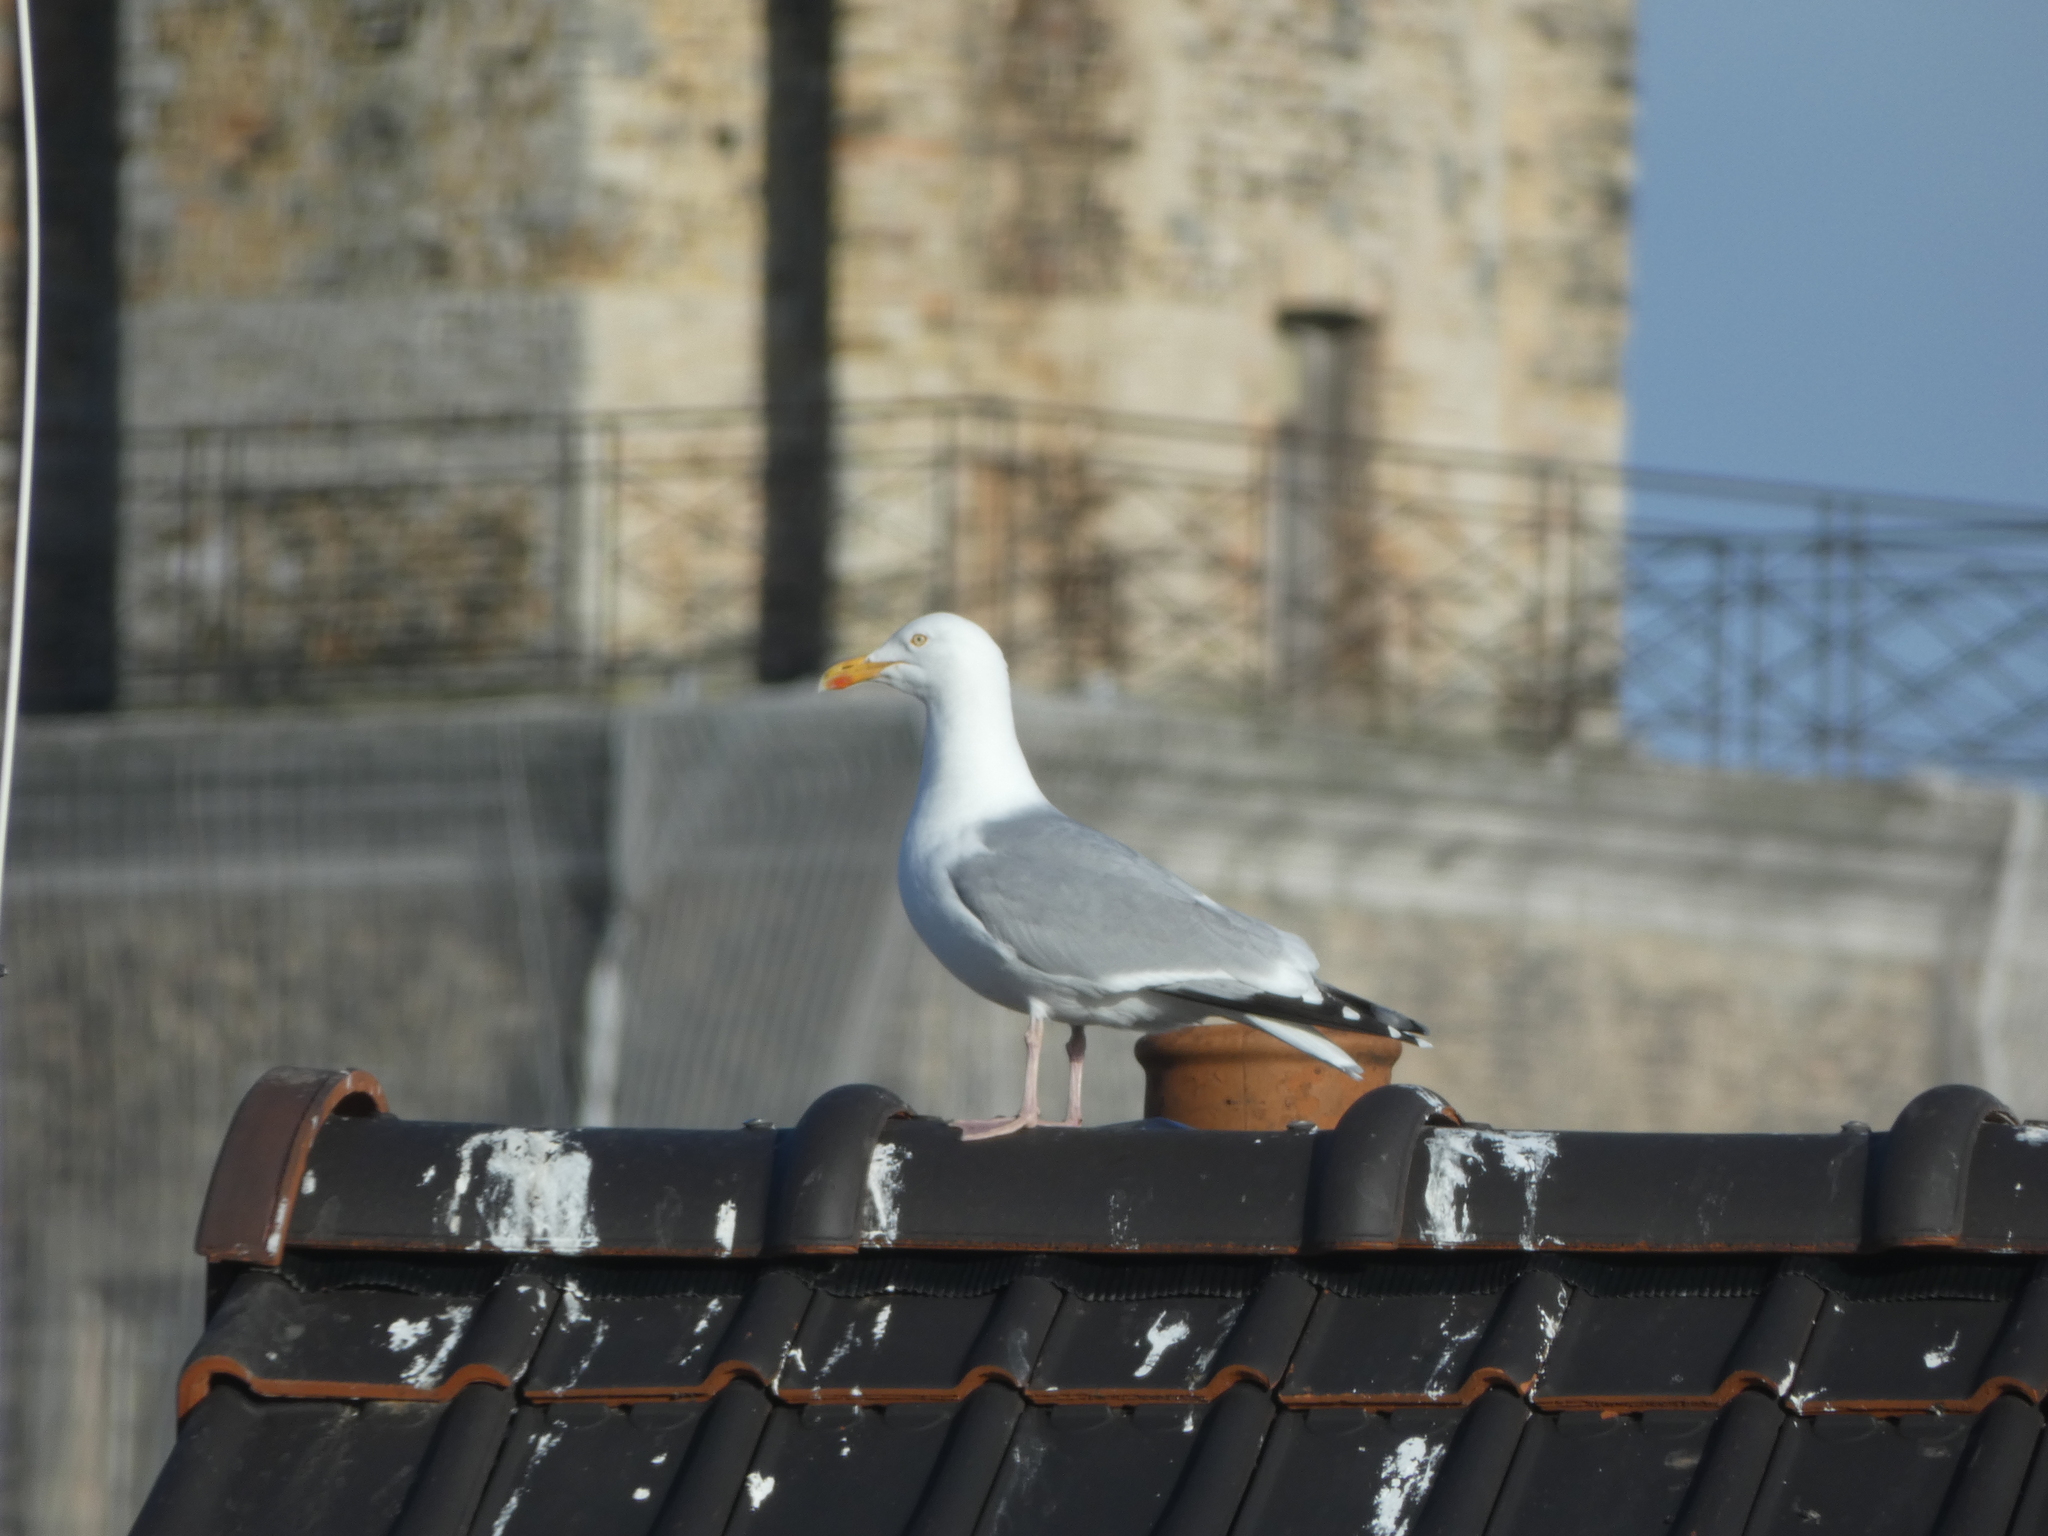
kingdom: Animalia
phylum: Chordata
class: Aves
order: Charadriiformes
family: Laridae
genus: Larus
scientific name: Larus argentatus
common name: Herring gull
